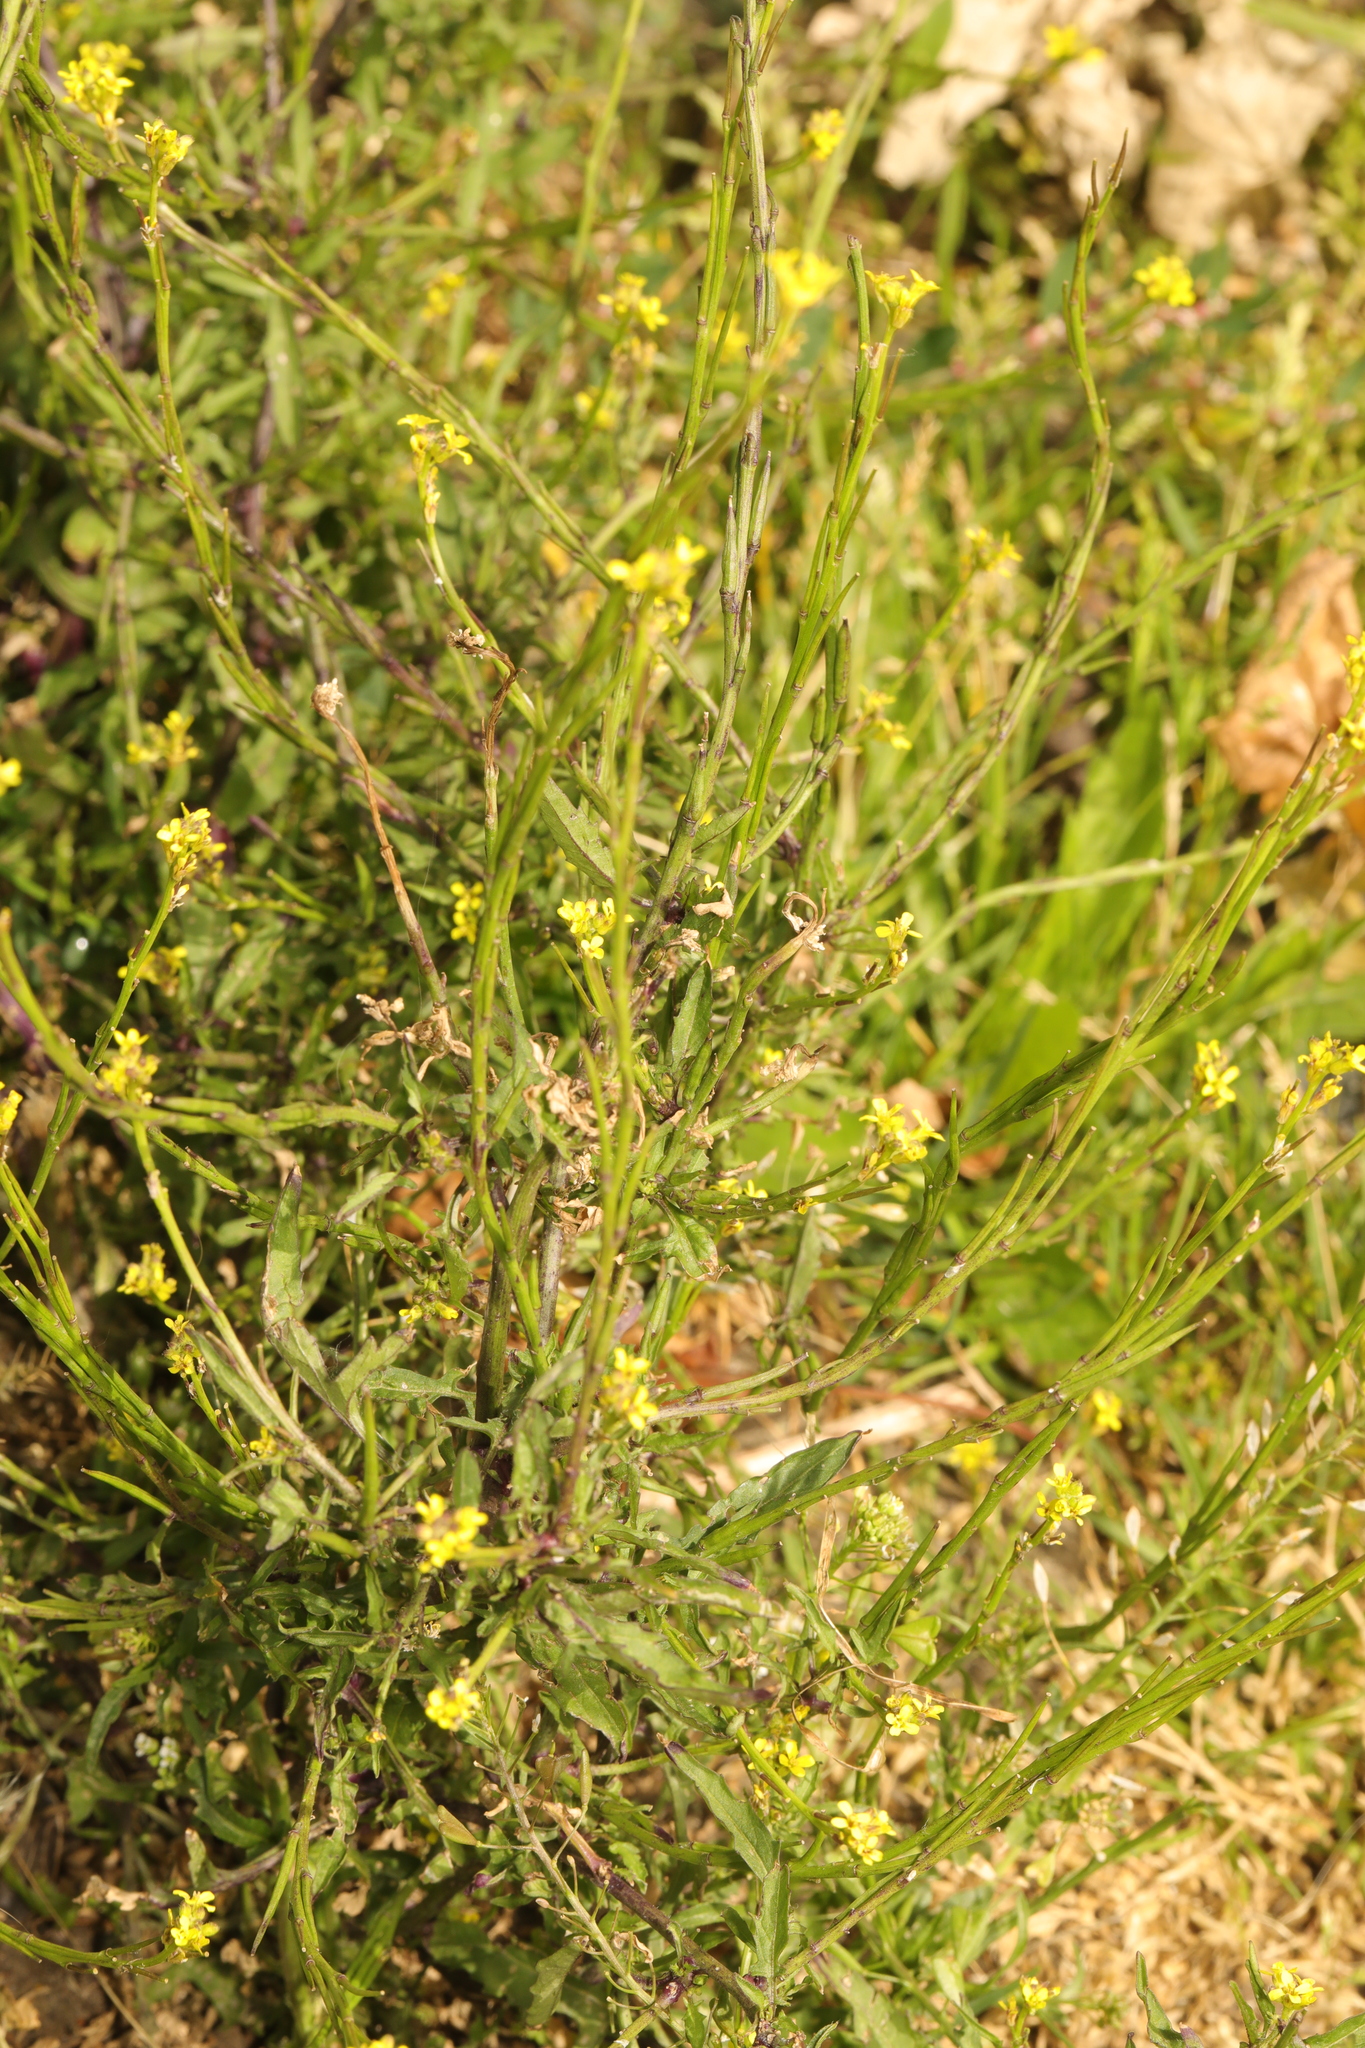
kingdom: Plantae
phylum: Tracheophyta
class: Magnoliopsida
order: Brassicales
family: Brassicaceae
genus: Sisymbrium
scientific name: Sisymbrium officinale
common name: Hedge mustard
